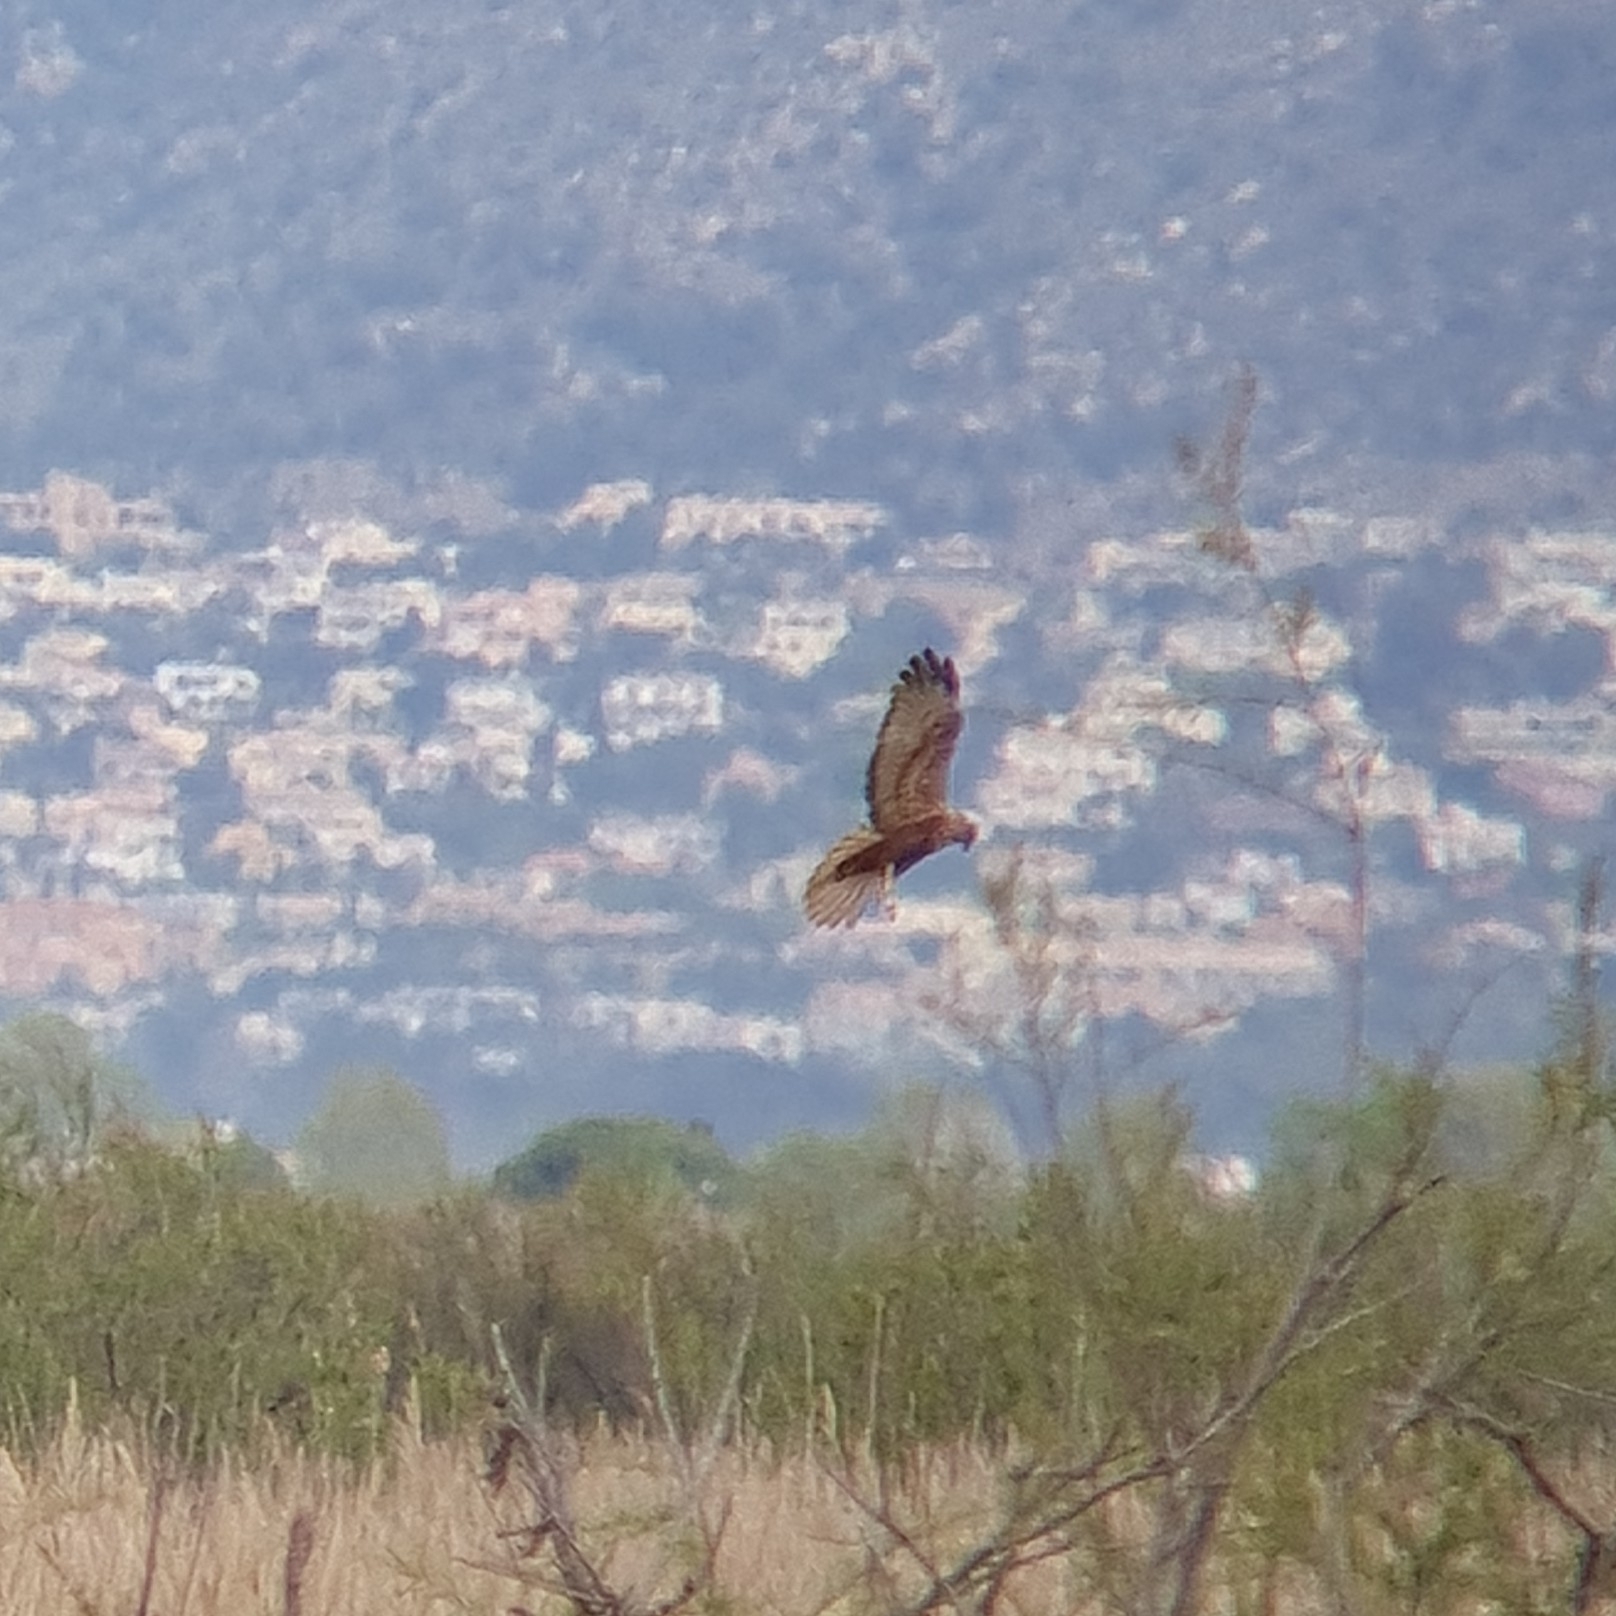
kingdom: Animalia
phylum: Chordata
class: Aves
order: Accipitriformes
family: Accipitridae
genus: Circus
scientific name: Circus aeruginosus
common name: Western marsh harrier
